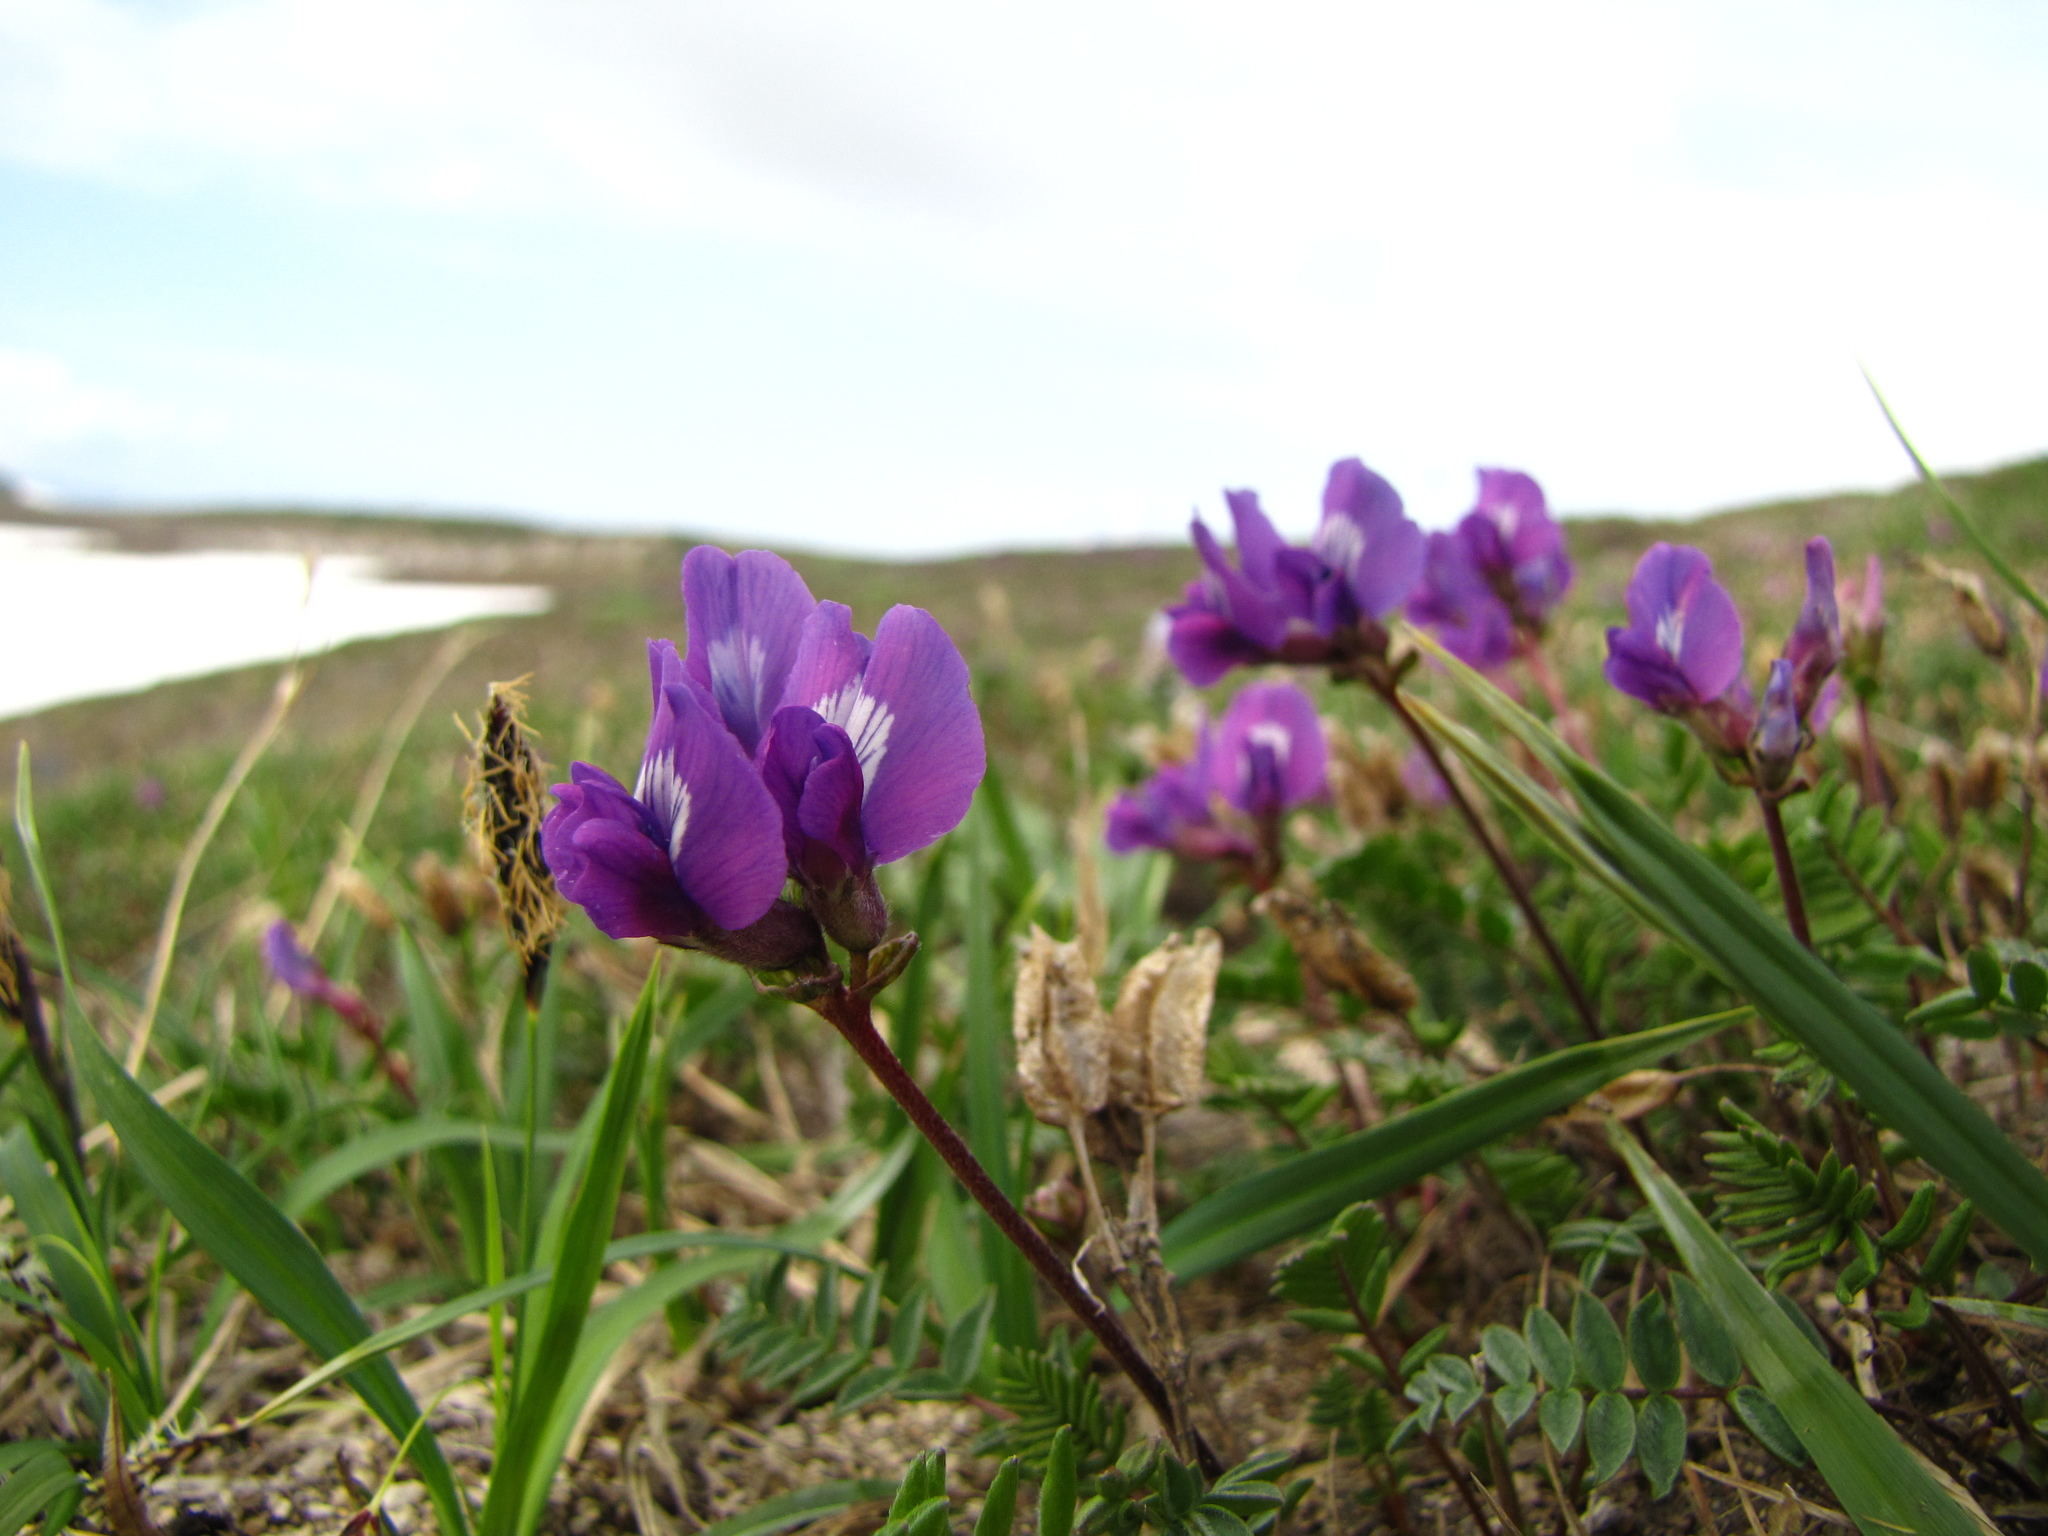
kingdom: Plantae
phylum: Tracheophyta
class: Magnoliopsida
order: Fabales
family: Fabaceae
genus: Oxytropis
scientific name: Oxytropis revoluta
